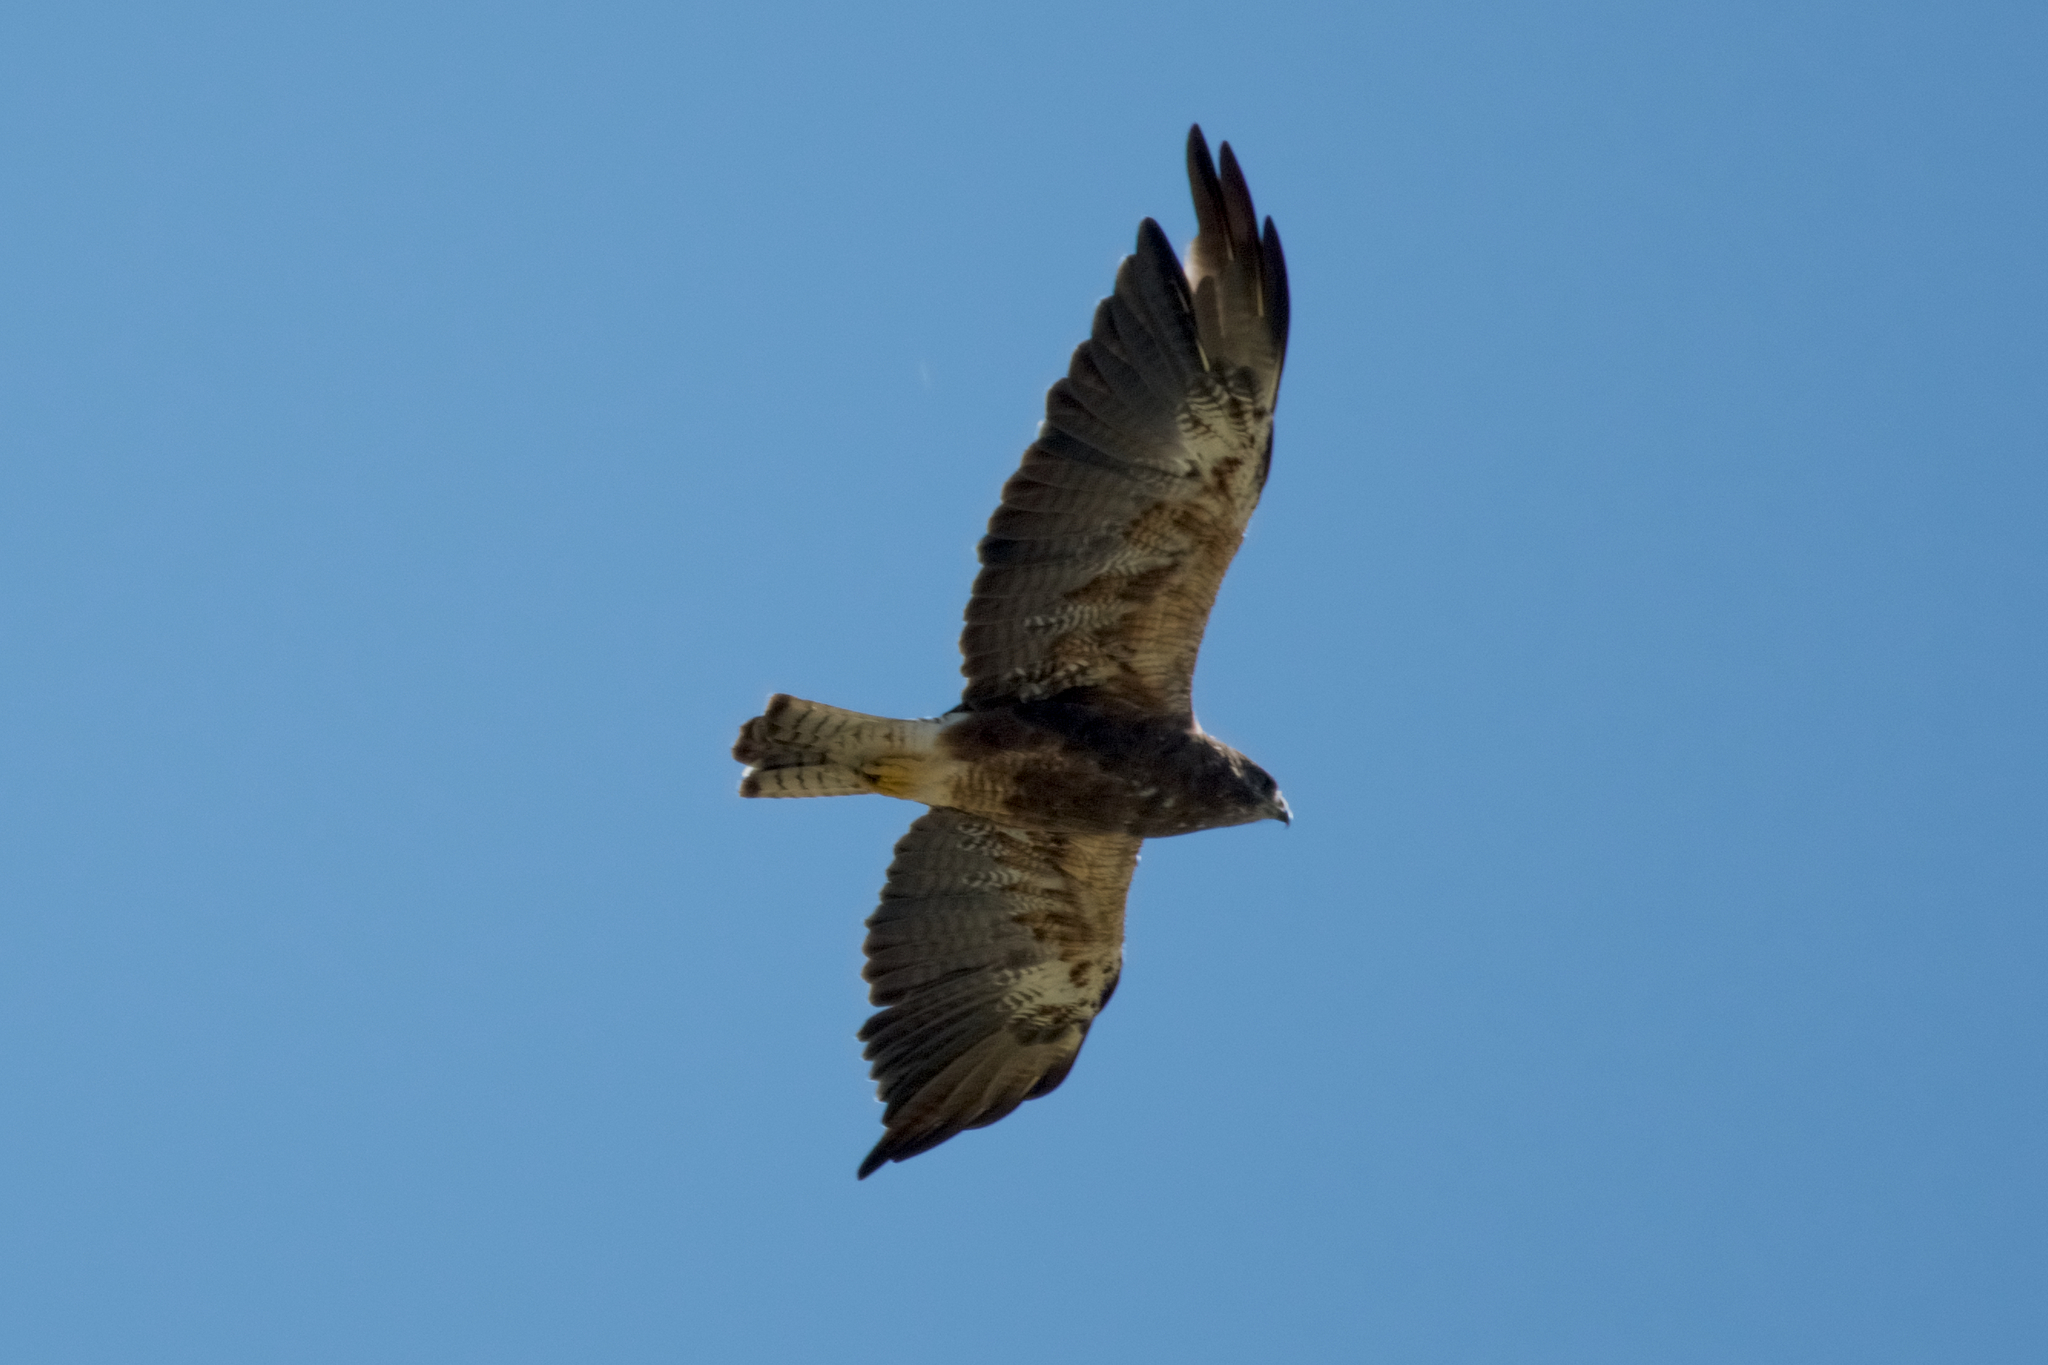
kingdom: Animalia
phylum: Chordata
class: Aves
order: Accipitriformes
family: Accipitridae
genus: Buteo
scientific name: Buteo swainsoni
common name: Swainson's hawk
